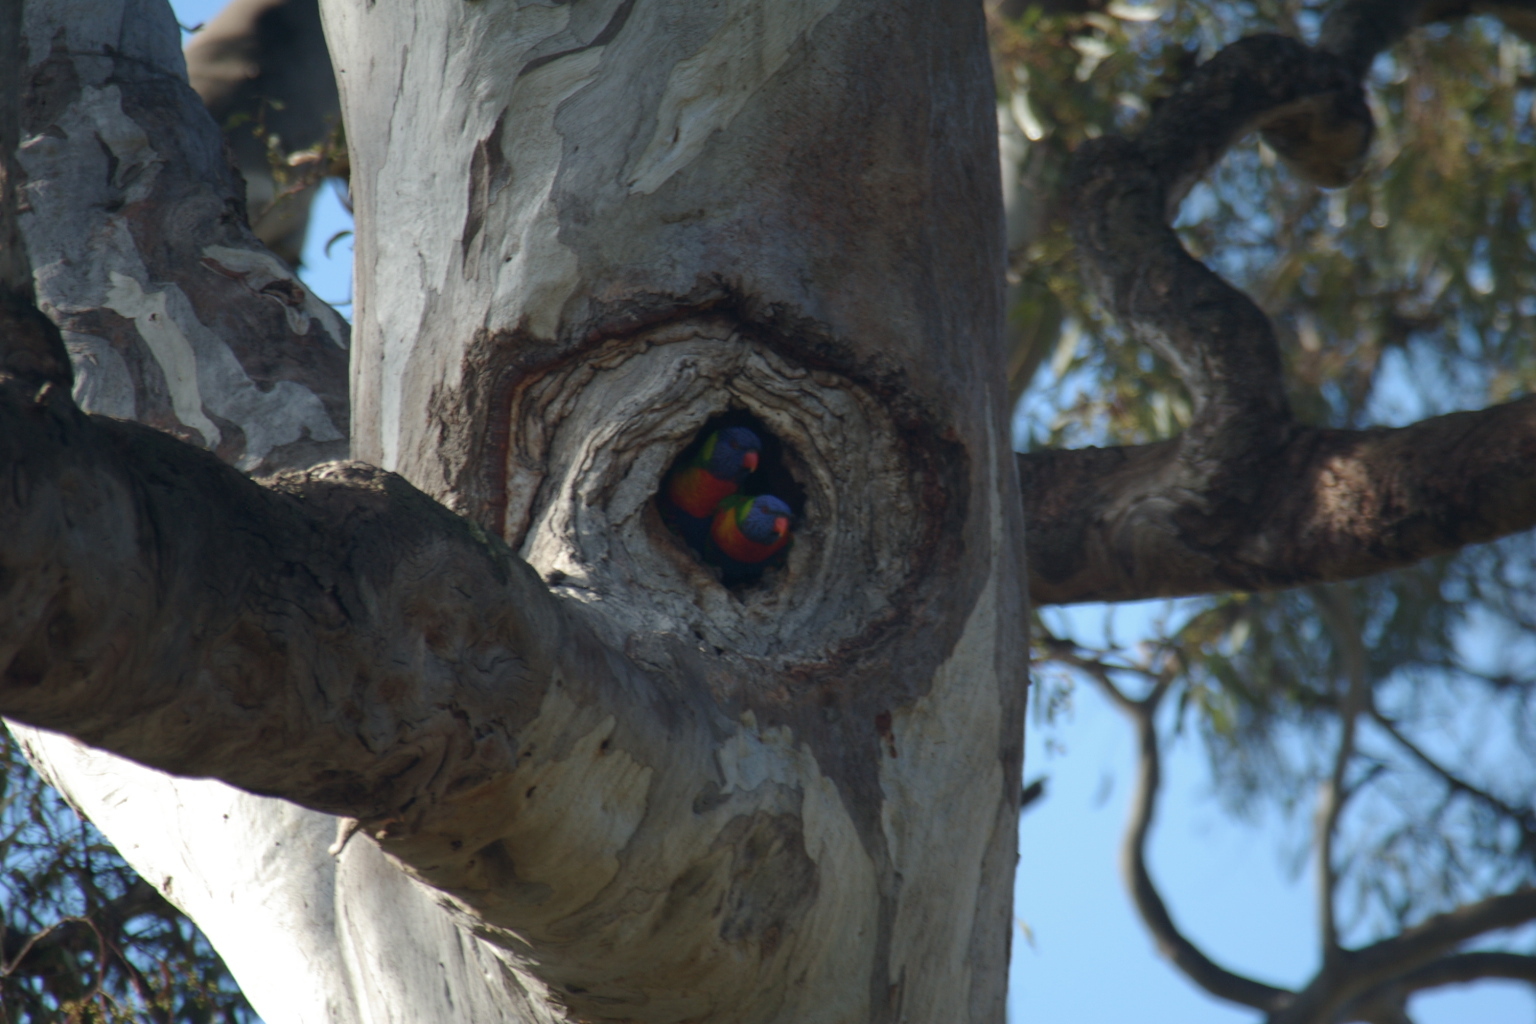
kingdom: Animalia
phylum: Chordata
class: Aves
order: Psittaciformes
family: Psittacidae
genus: Trichoglossus
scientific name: Trichoglossus haematodus
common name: Coconut lorikeet
